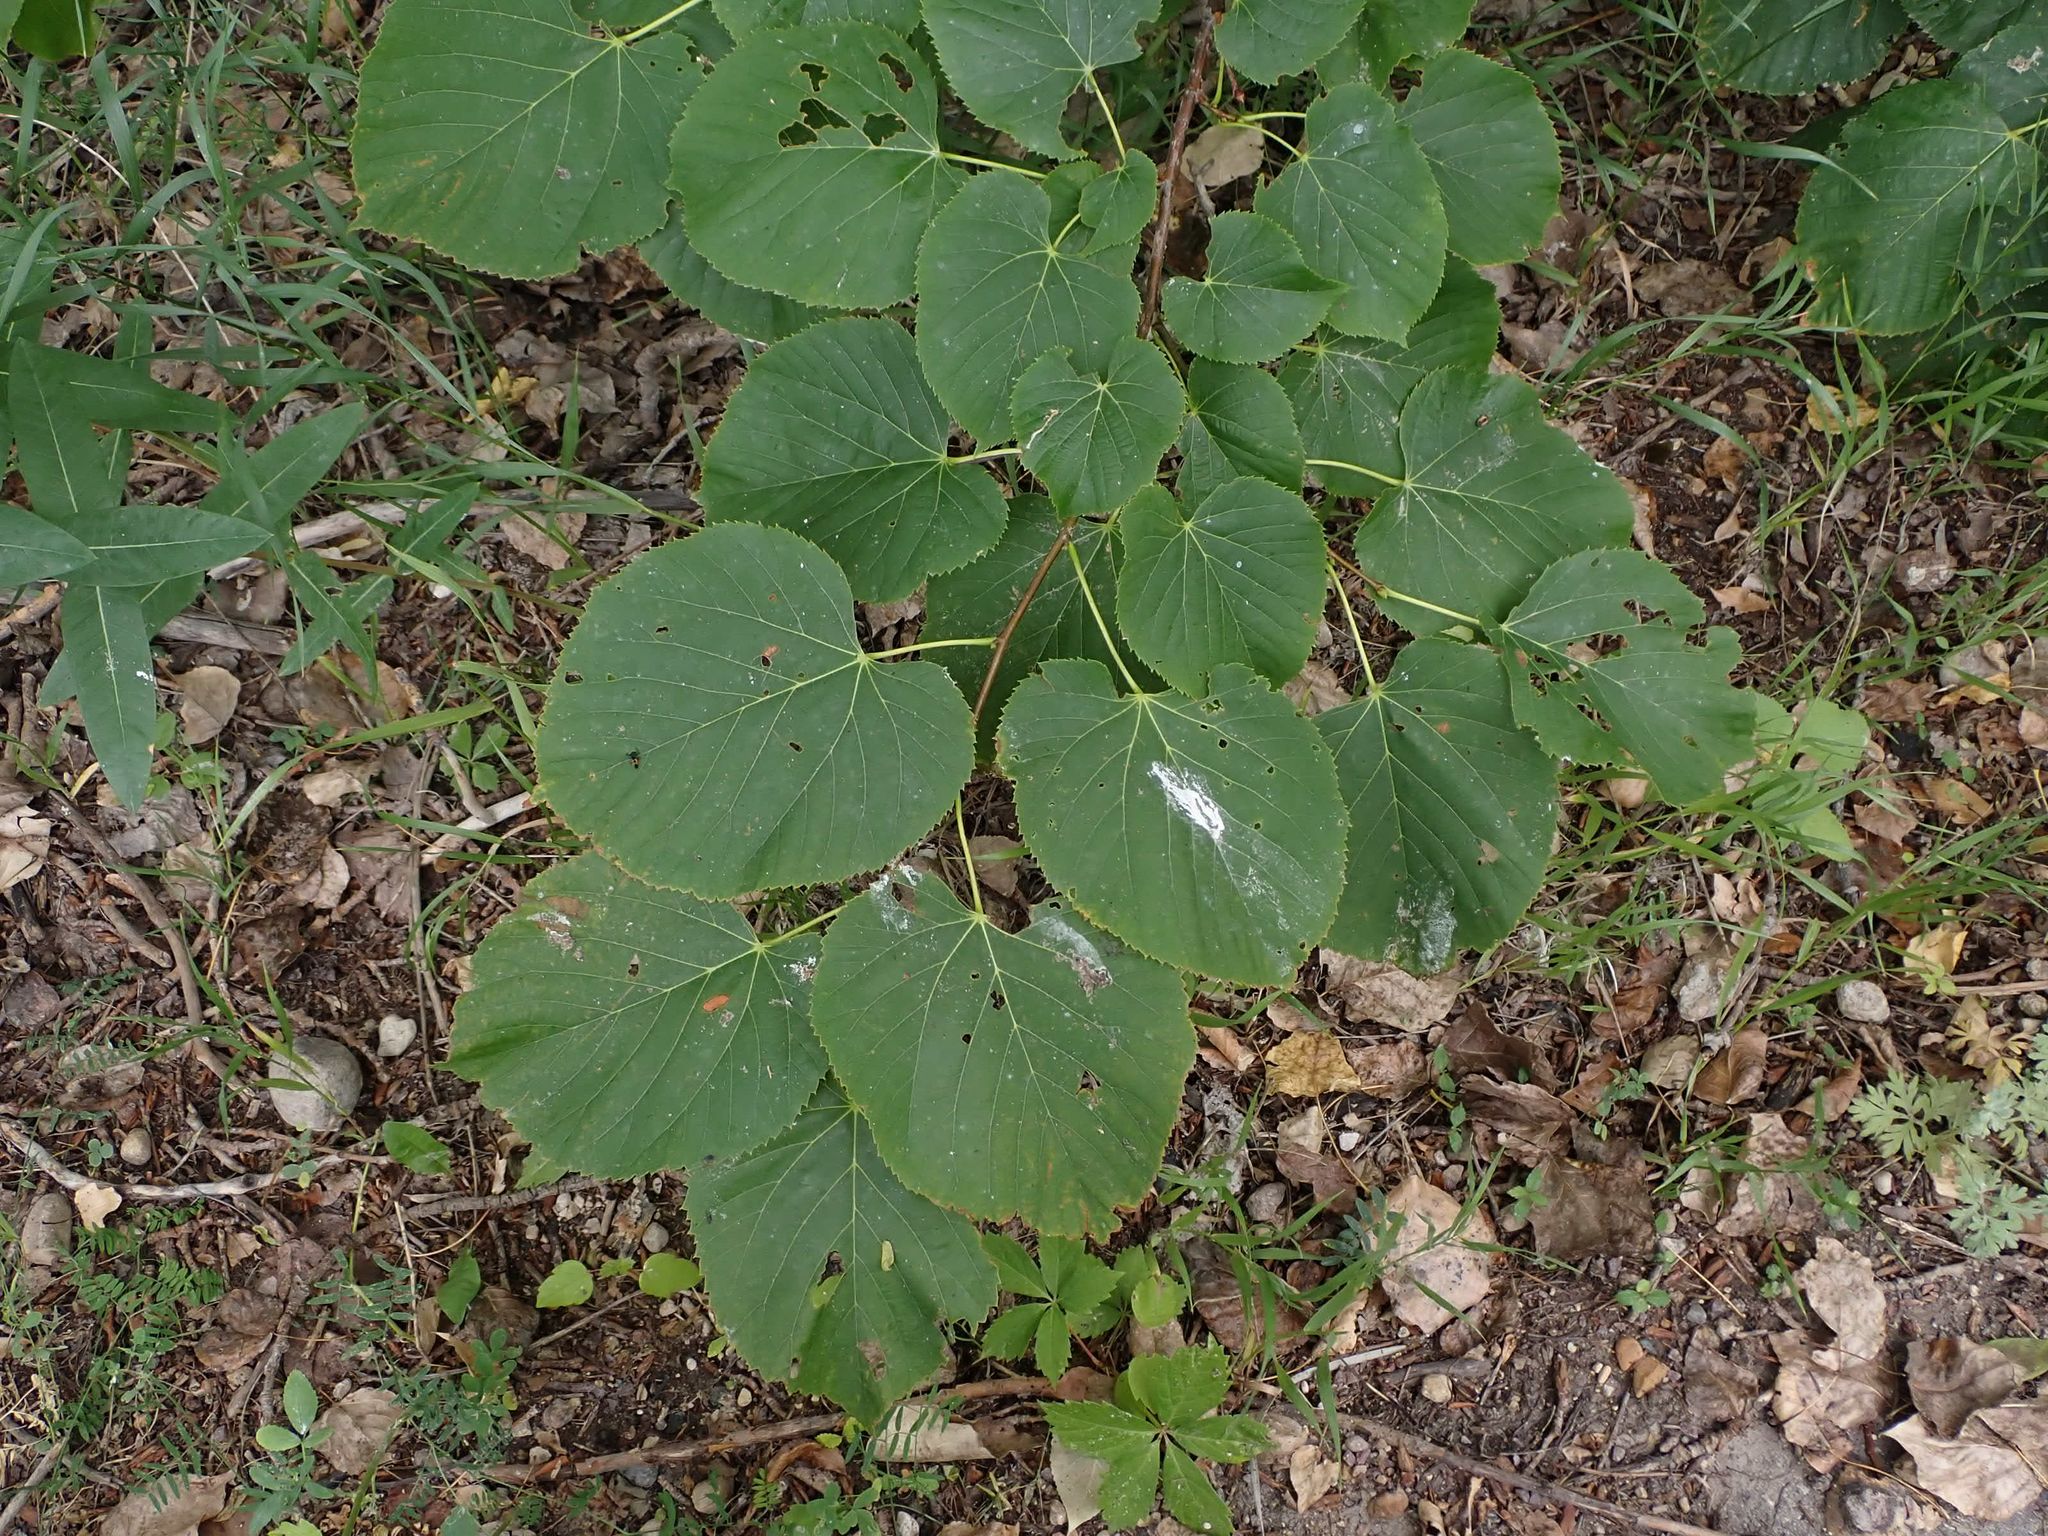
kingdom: Plantae
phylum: Tracheophyta
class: Magnoliopsida
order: Malvales
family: Malvaceae
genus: Tilia
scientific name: Tilia americana
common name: Basswood
